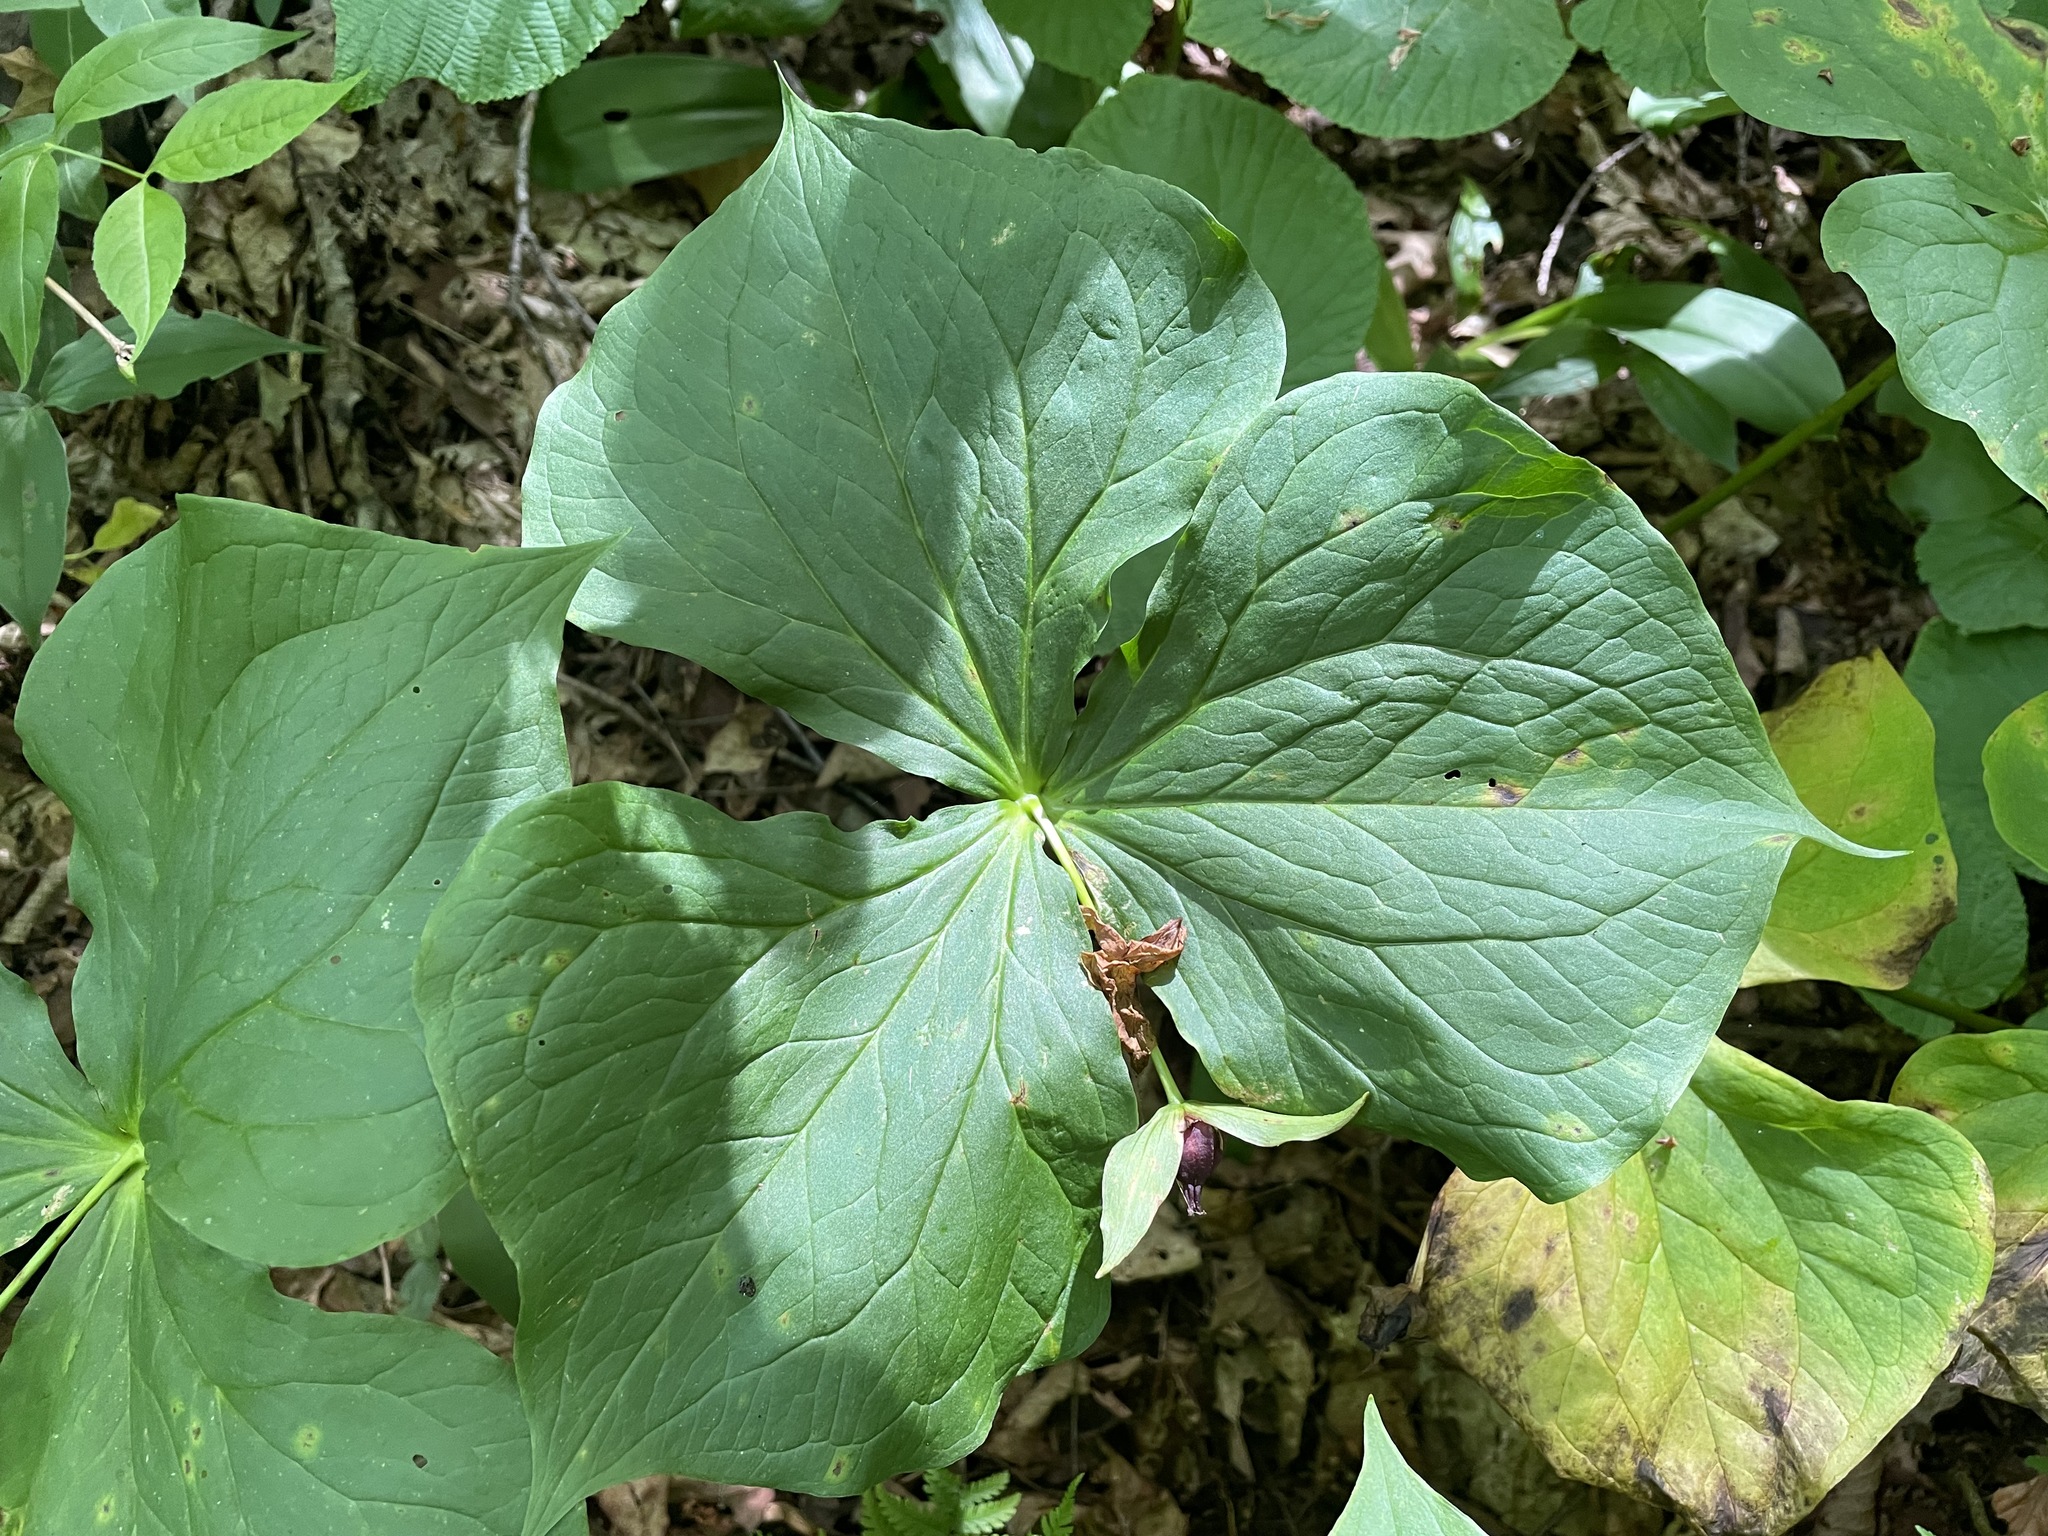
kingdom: Plantae
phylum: Tracheophyta
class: Liliopsida
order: Liliales
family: Melanthiaceae
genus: Trillium
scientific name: Trillium erectum
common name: Purple trillium
